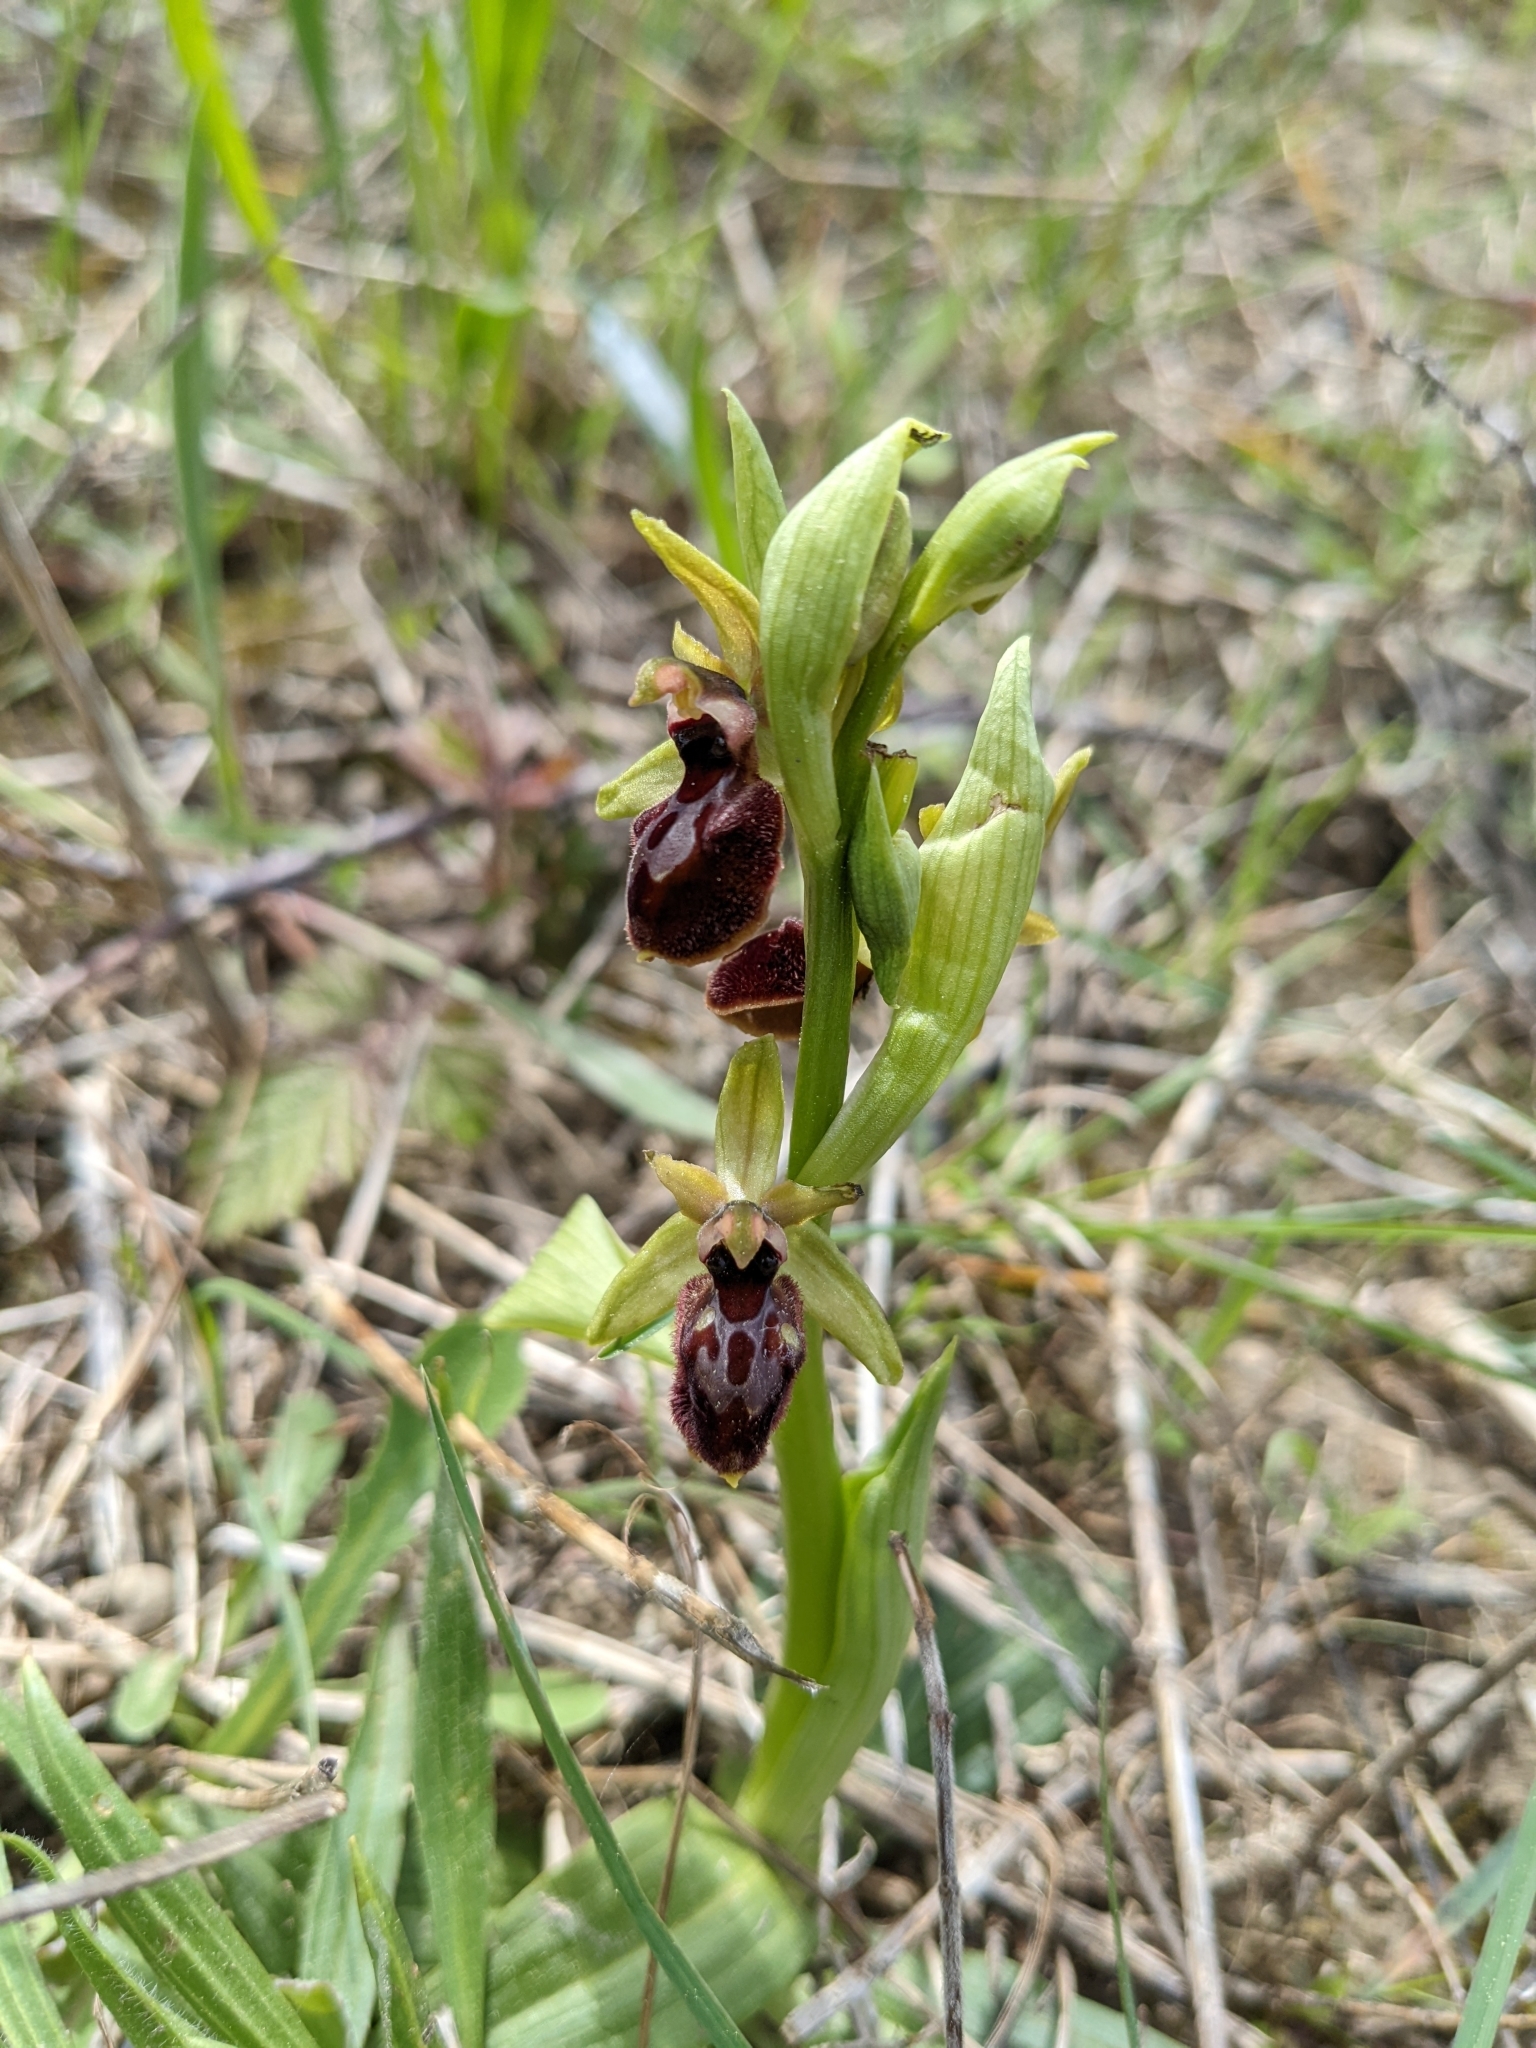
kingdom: Plantae
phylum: Tracheophyta
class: Liliopsida
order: Asparagales
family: Orchidaceae
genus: Ophrys
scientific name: Ophrys arachnitiformis
